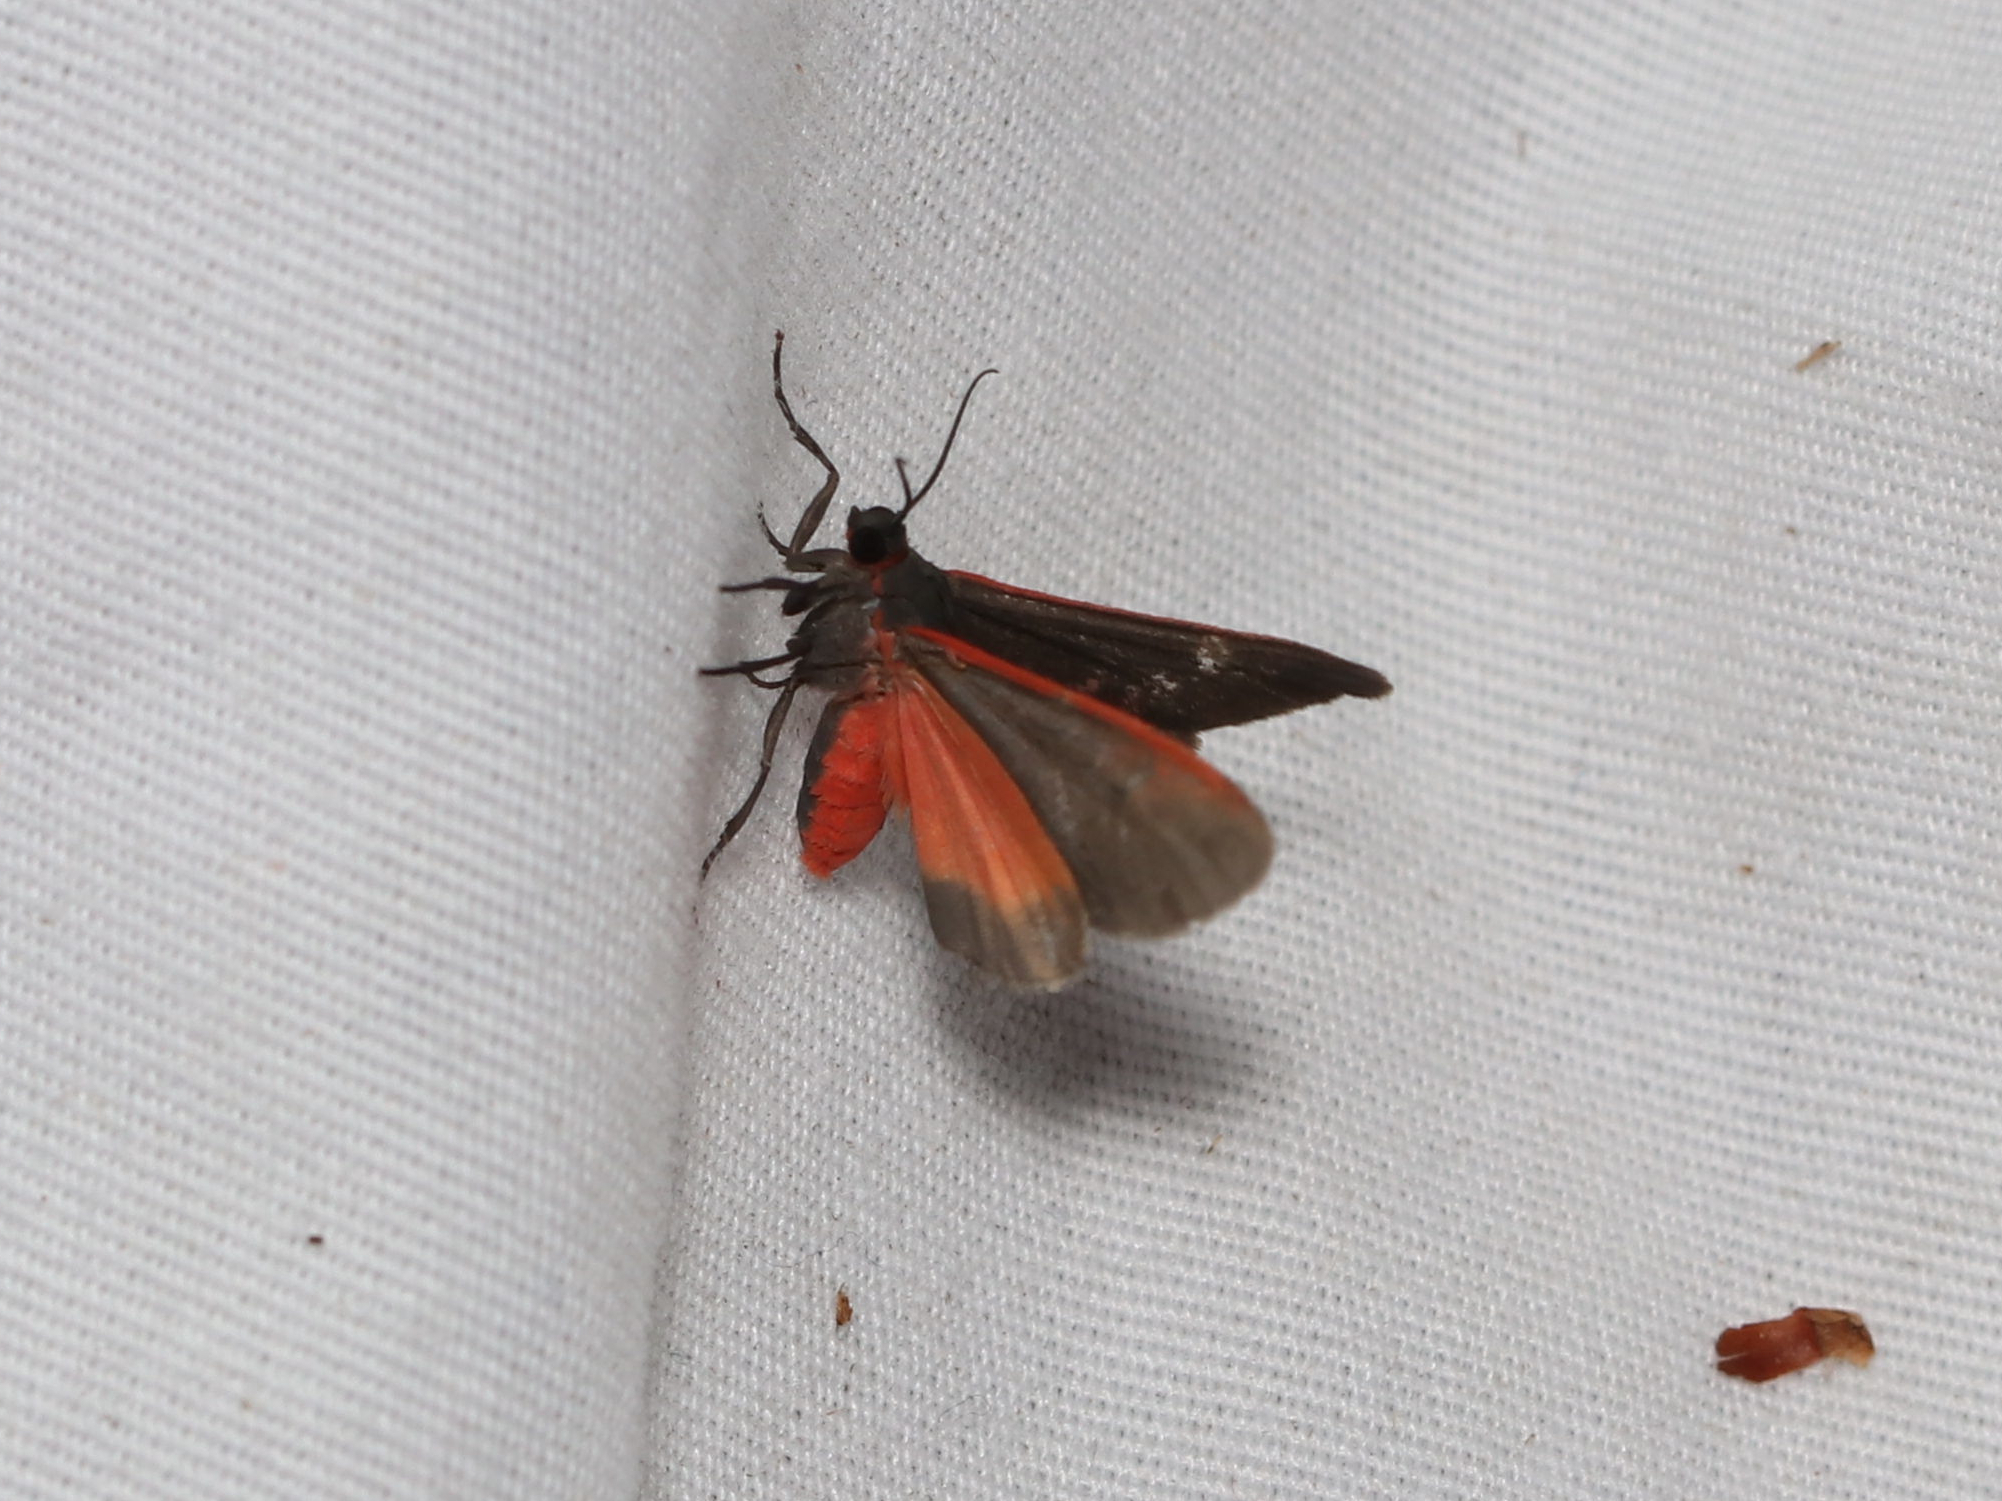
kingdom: Animalia
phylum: Arthropoda
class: Insecta
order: Lepidoptera
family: Erebidae
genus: Virbia
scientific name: Virbia laeta
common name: Joyful holomelina moth
